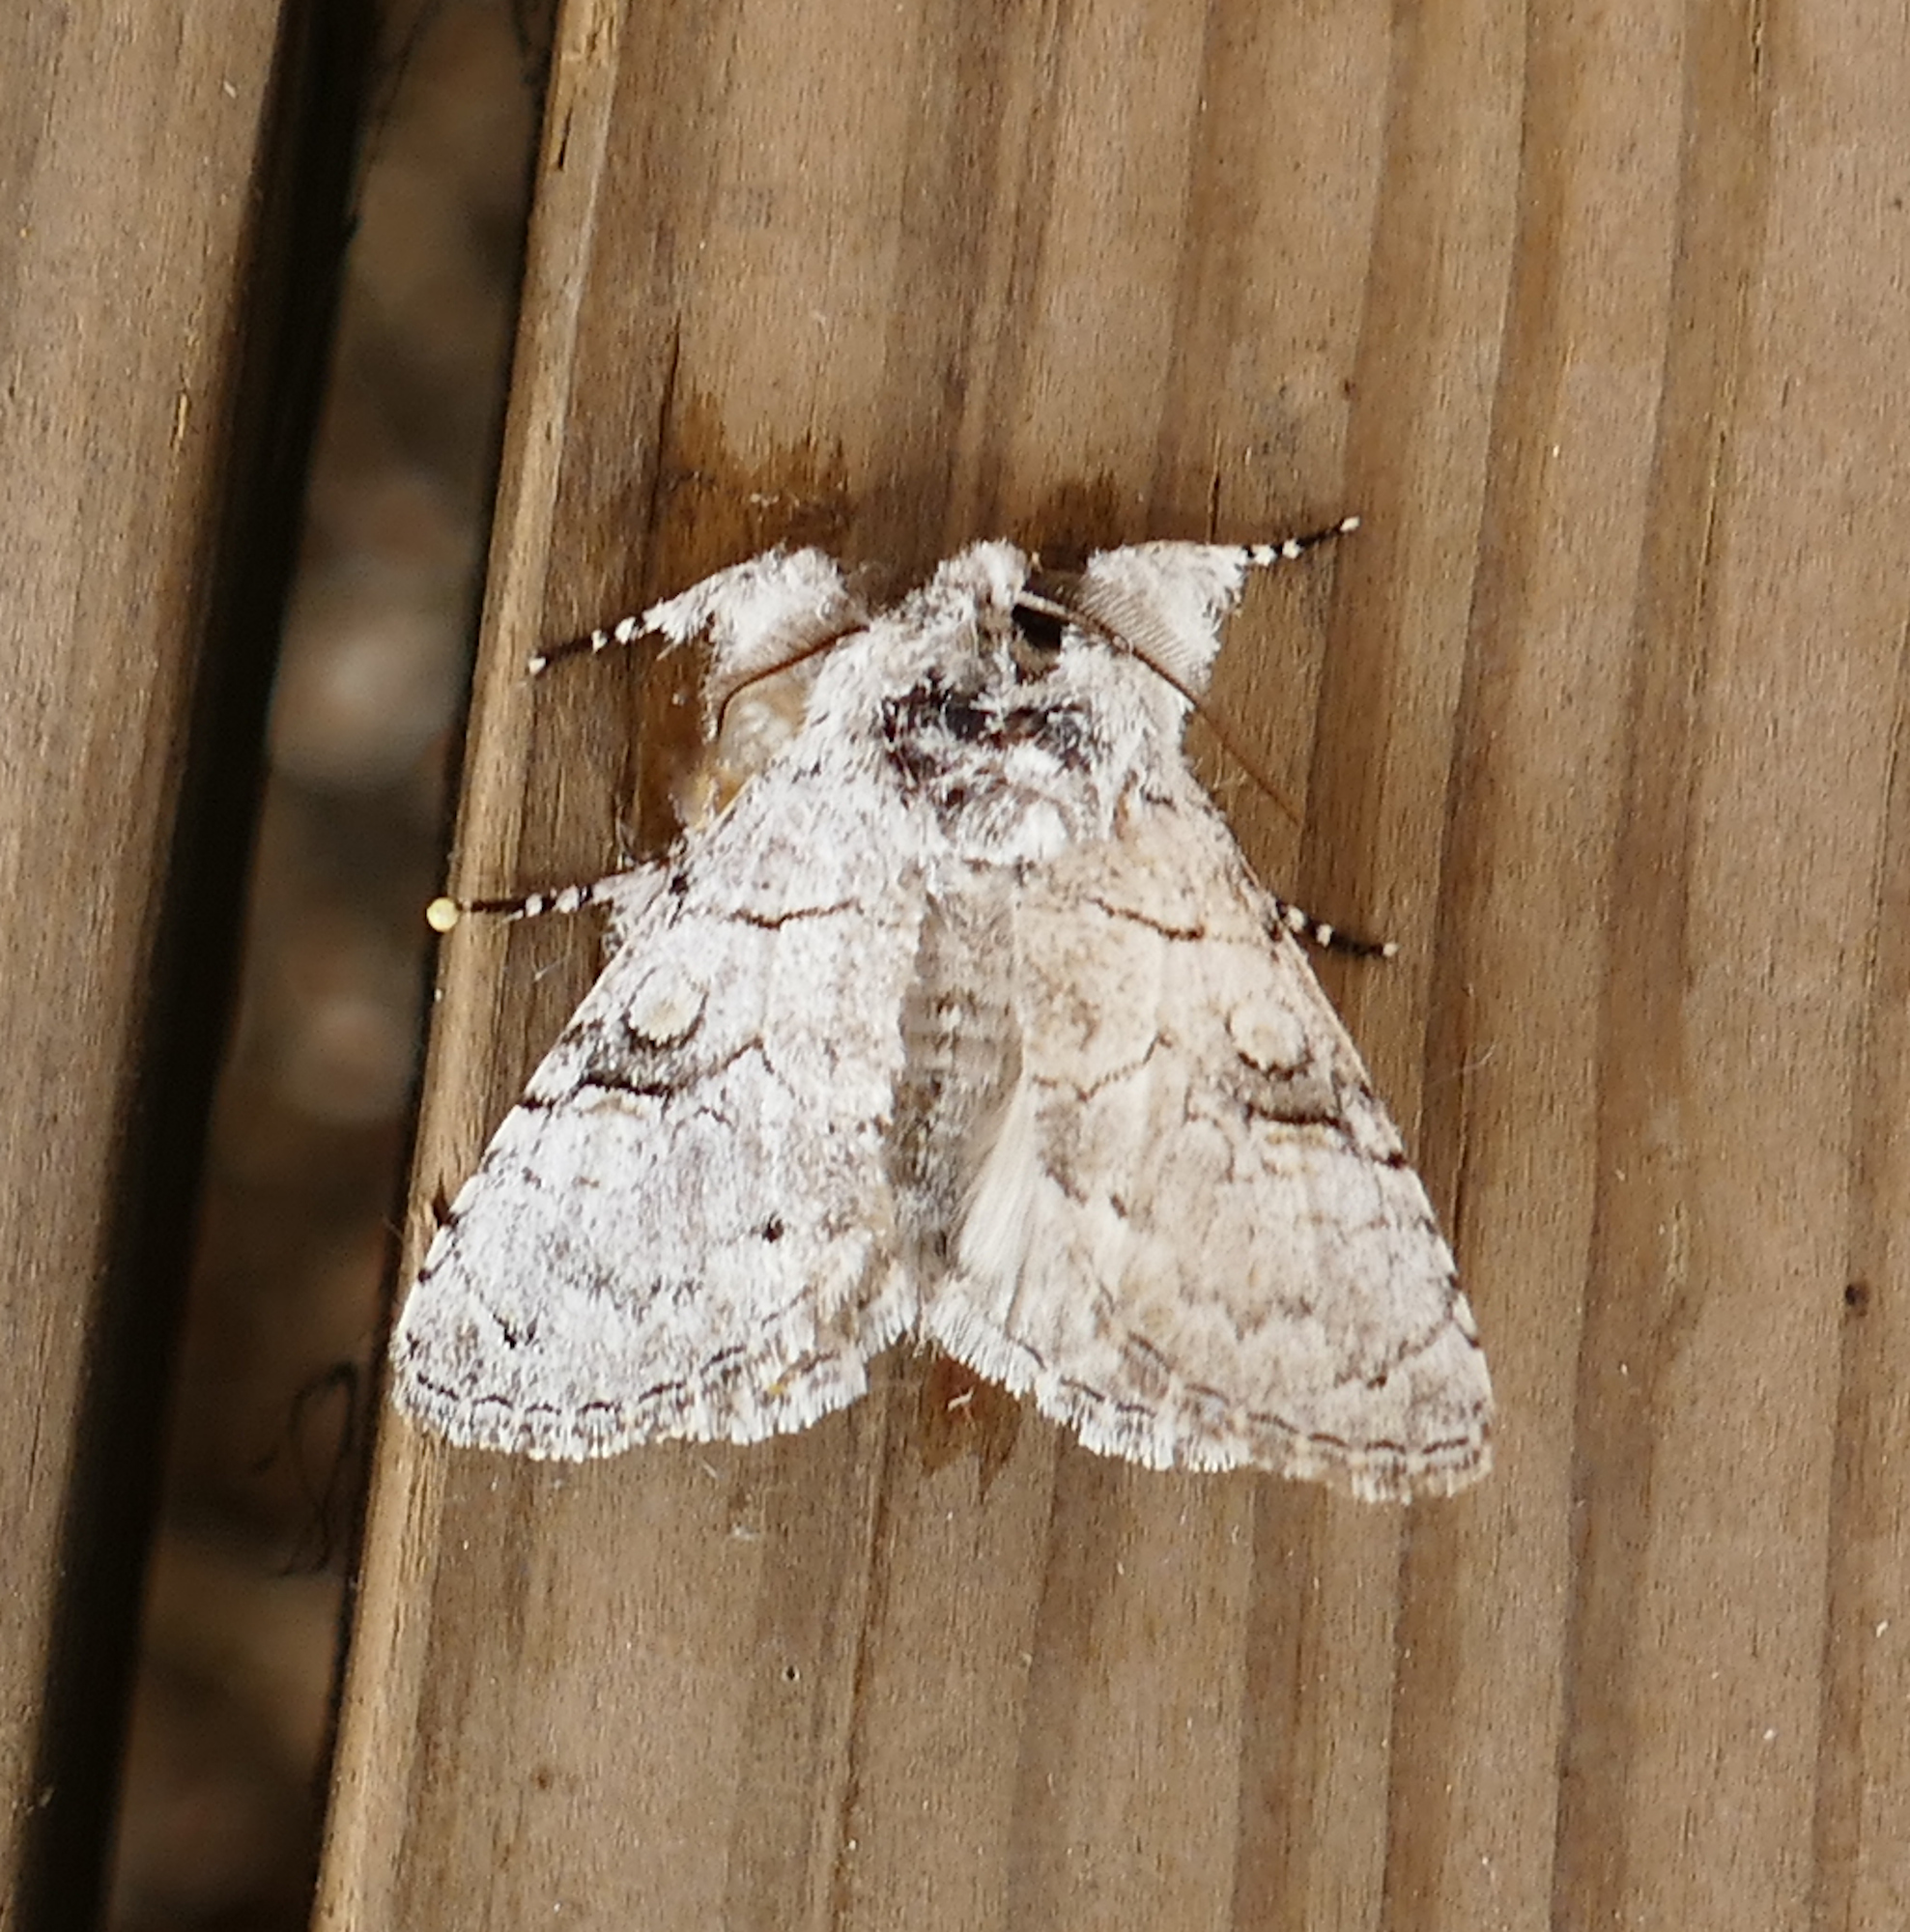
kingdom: Animalia
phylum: Arthropoda
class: Insecta
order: Lepidoptera
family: Noctuidae
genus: Charadra
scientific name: Charadra dispulsa
